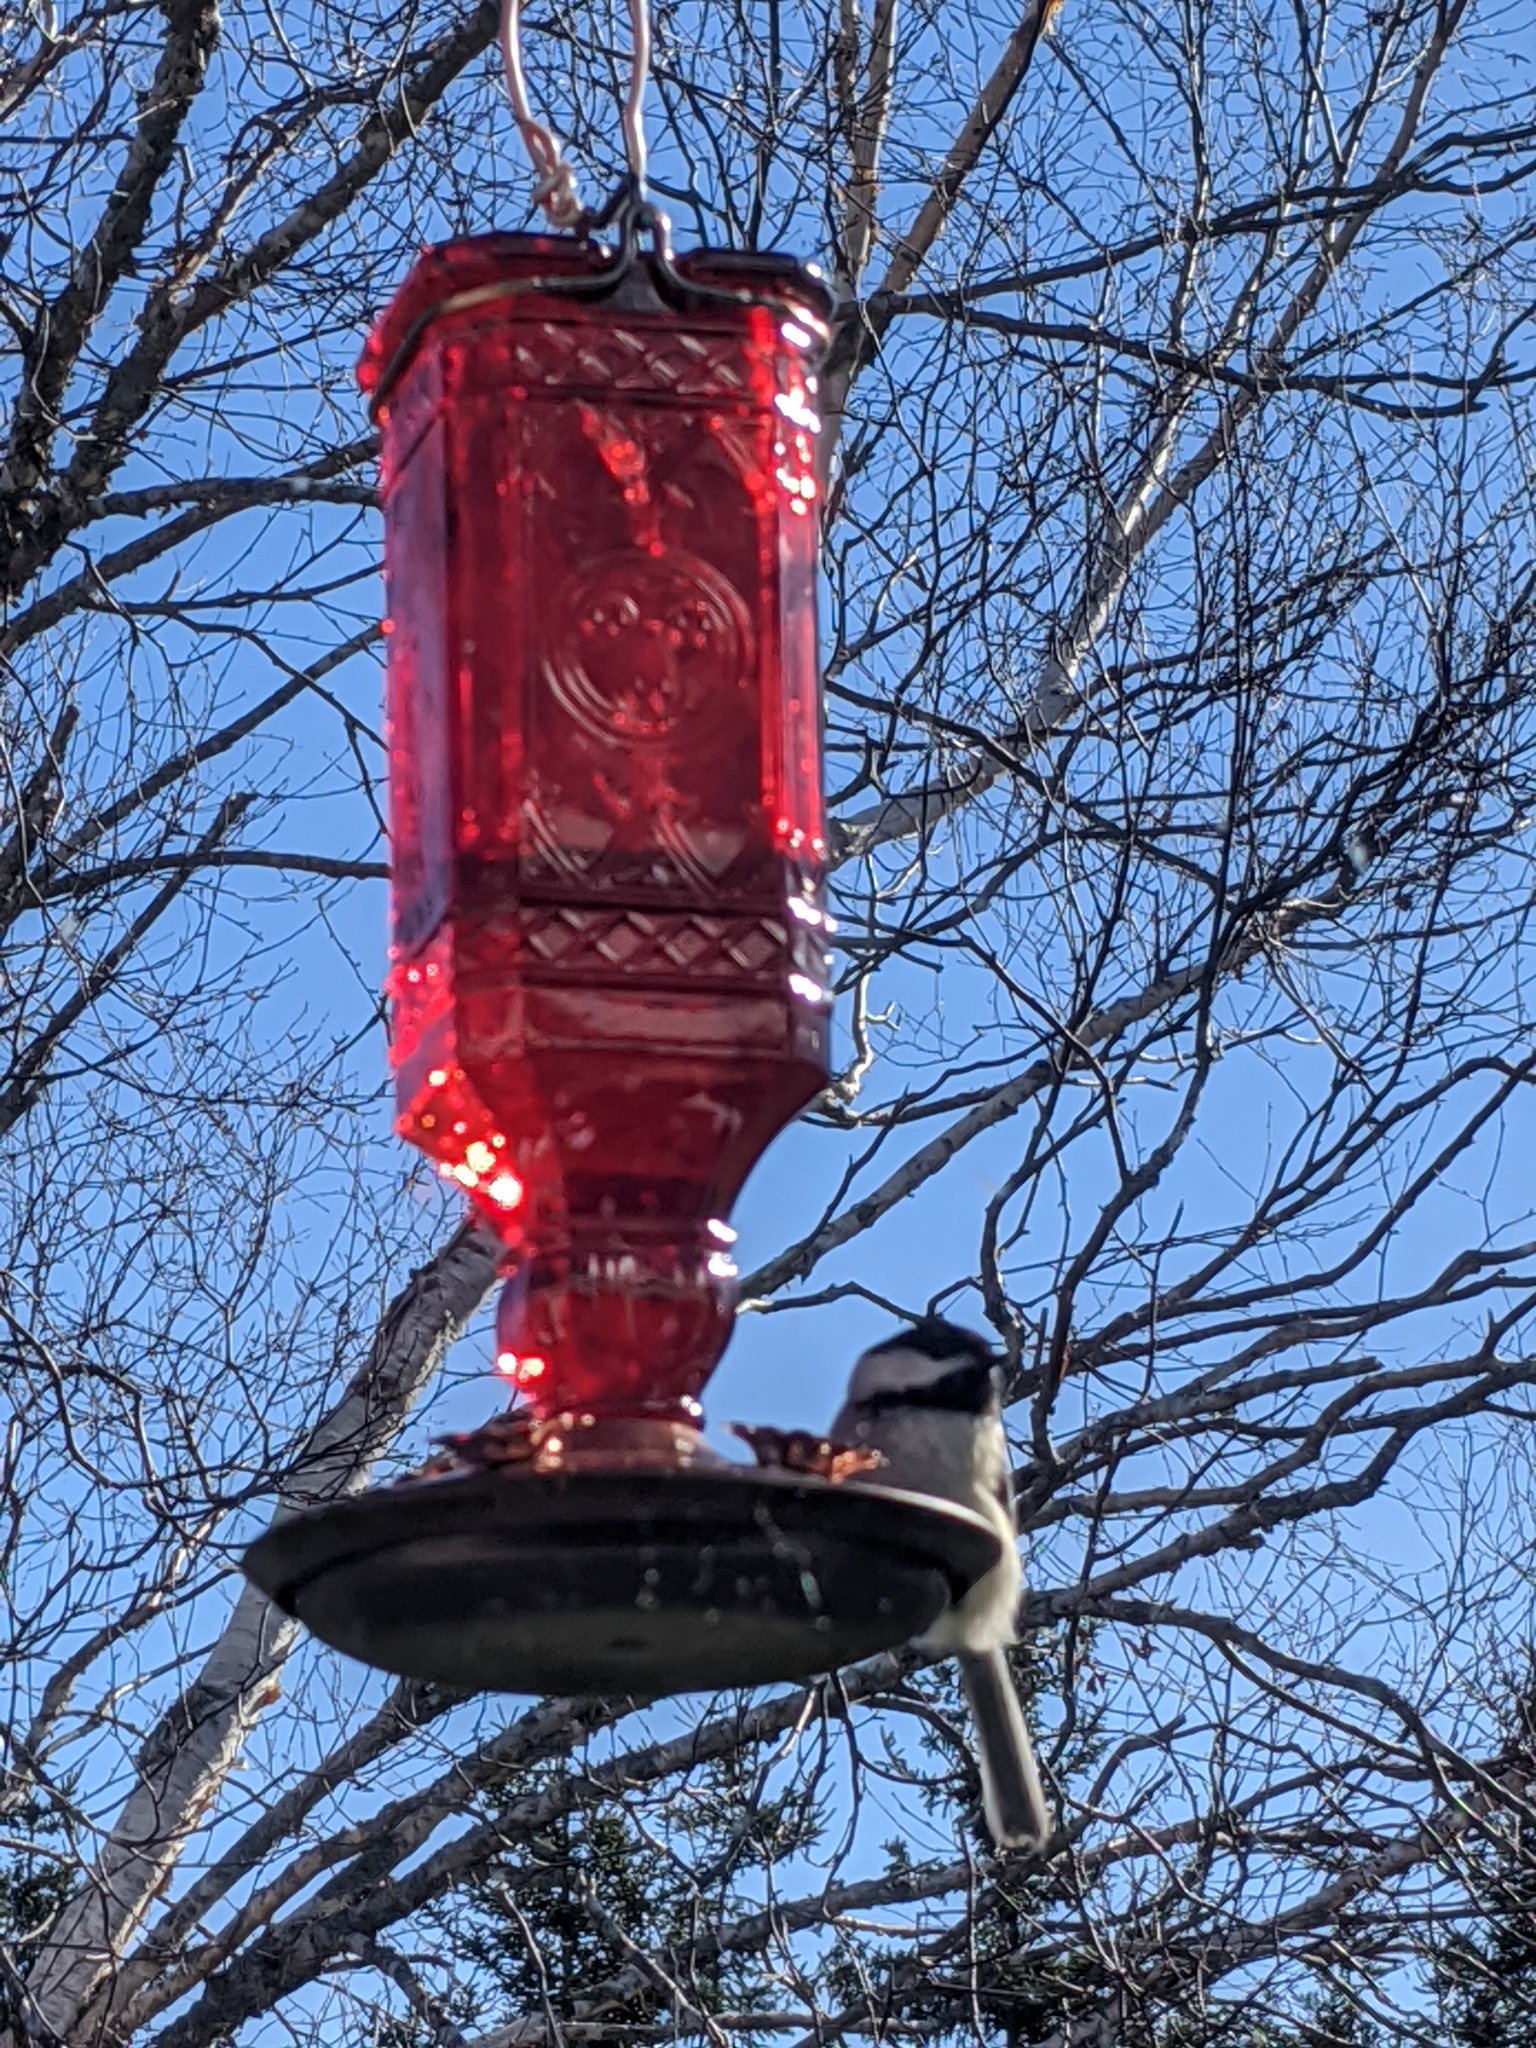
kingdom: Animalia
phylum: Chordata
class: Aves
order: Passeriformes
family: Paridae
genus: Poecile
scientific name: Poecile atricapillus
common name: Black-capped chickadee
